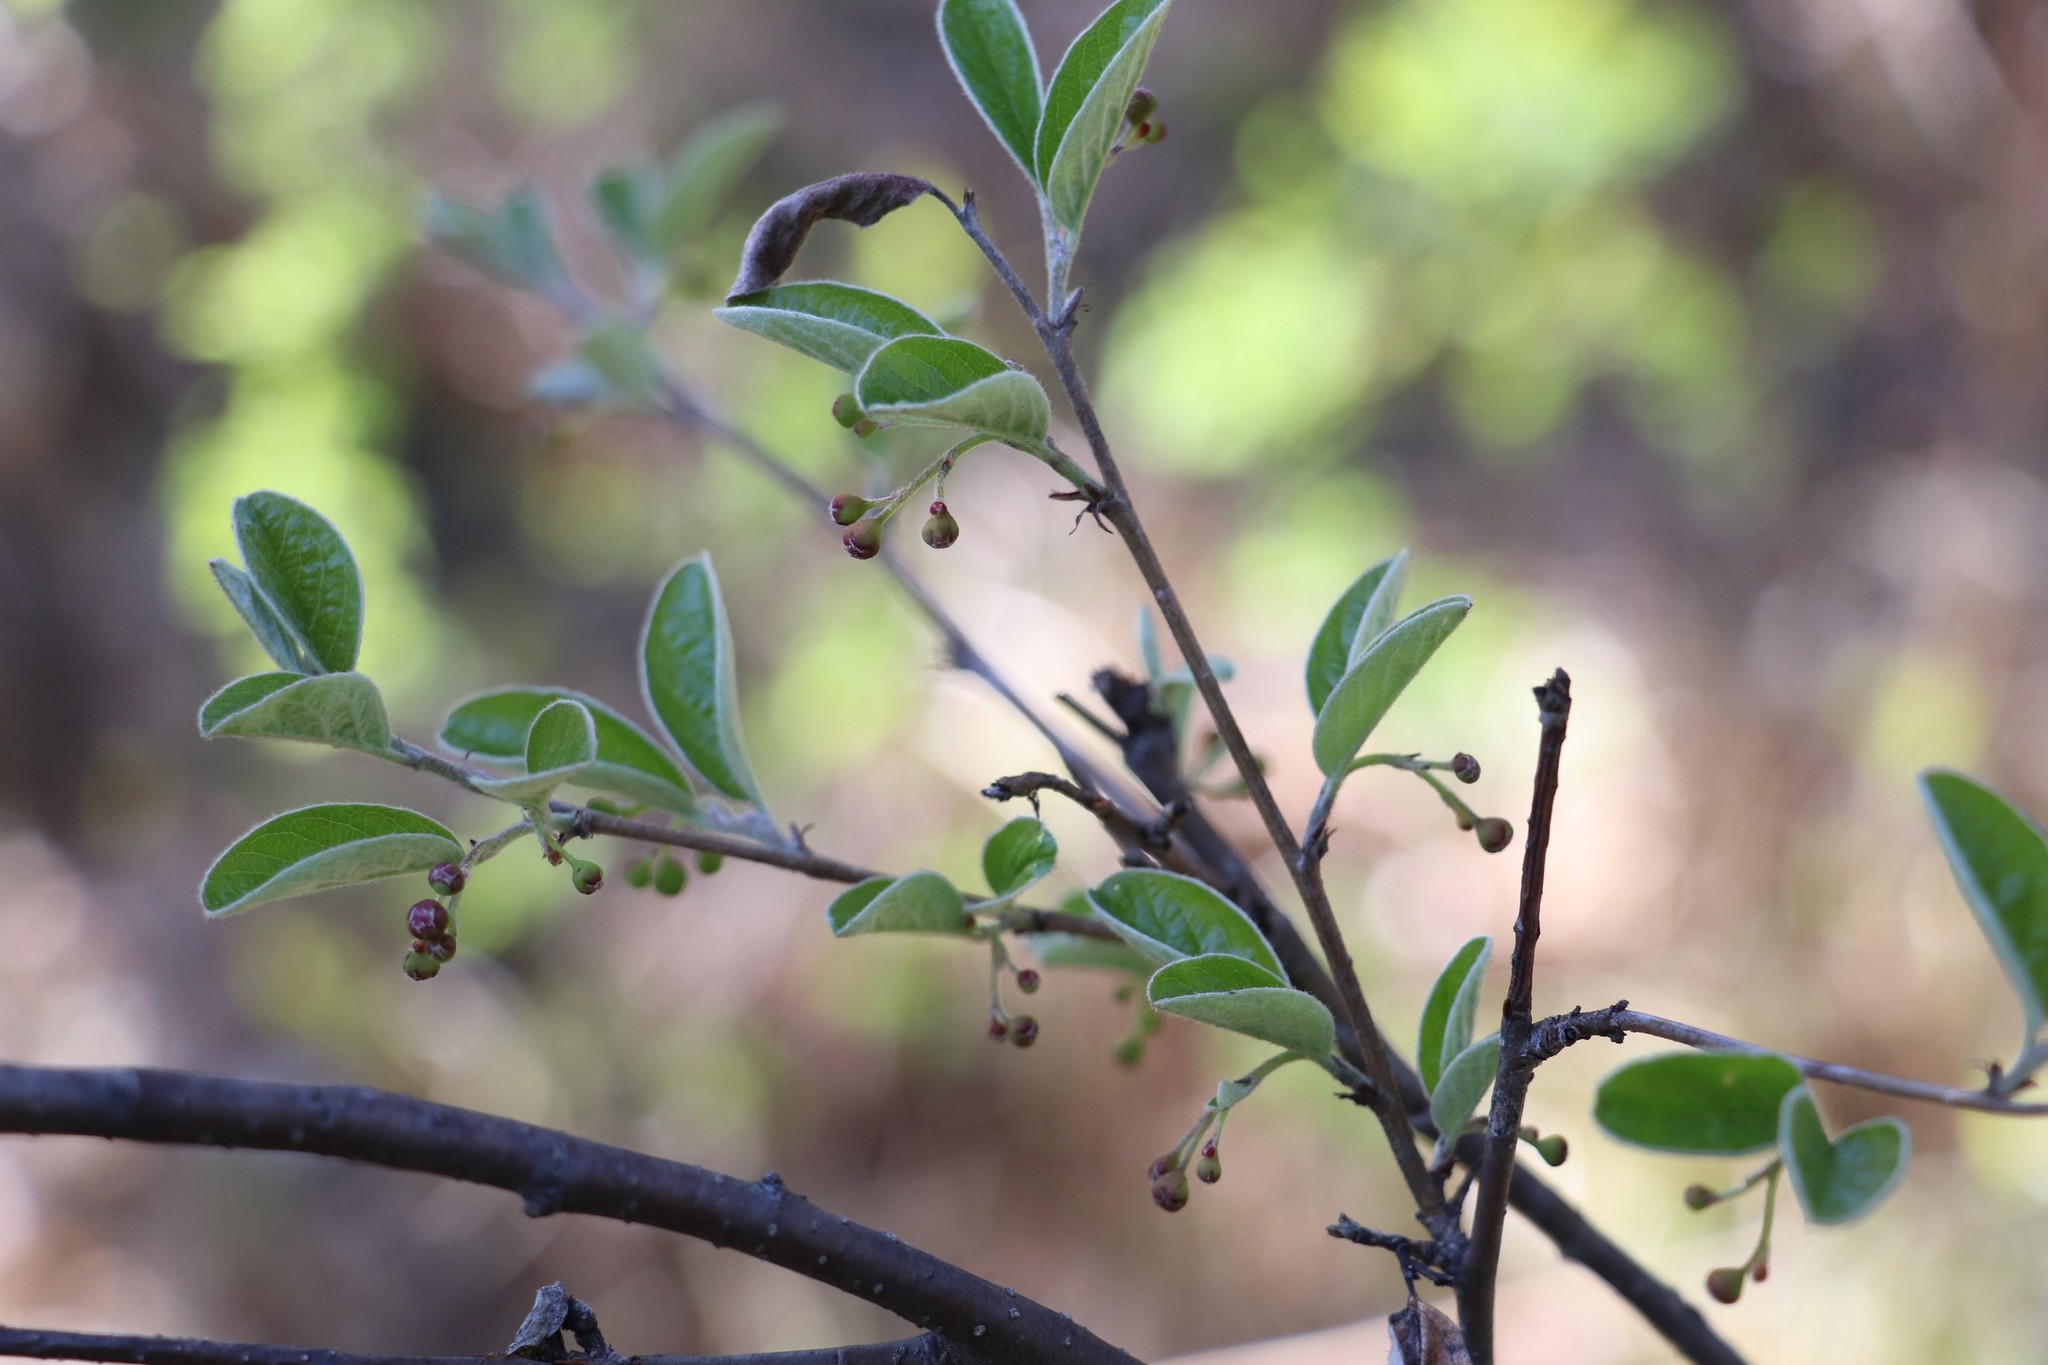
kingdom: Plantae
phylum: Tracheophyta
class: Magnoliopsida
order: Rosales
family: Rosaceae
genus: Cotoneaster
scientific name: Cotoneaster melanocarpus
